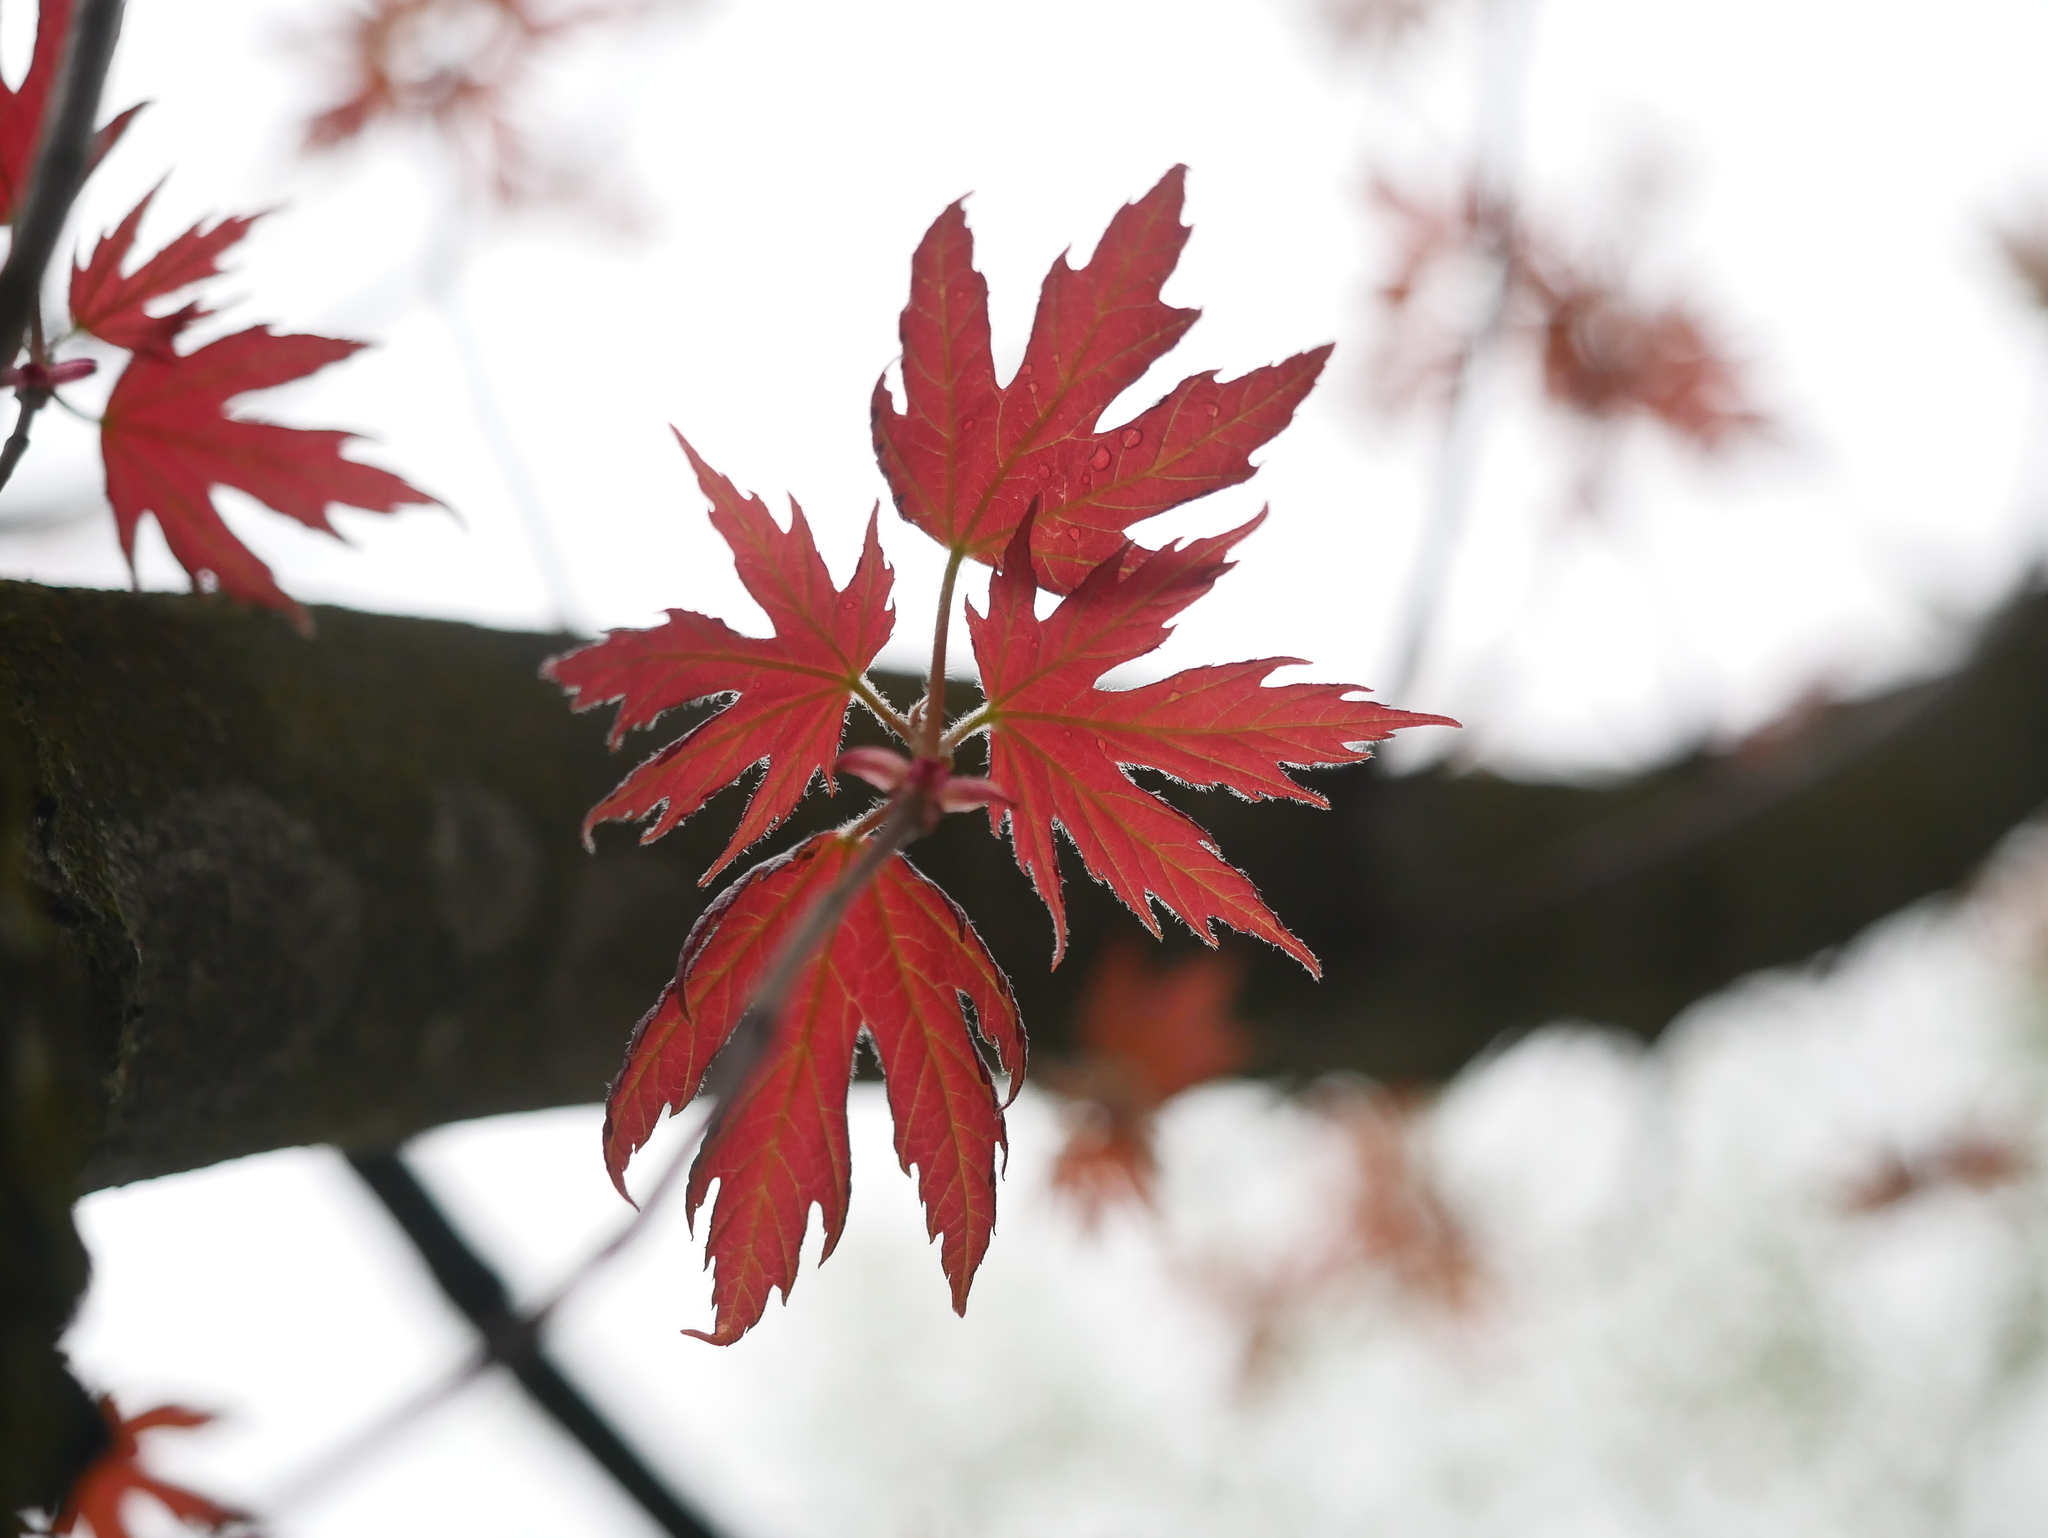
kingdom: Plantae
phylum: Tracheophyta
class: Magnoliopsida
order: Sapindales
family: Sapindaceae
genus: Acer
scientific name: Acer saccharinum
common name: Silver maple
